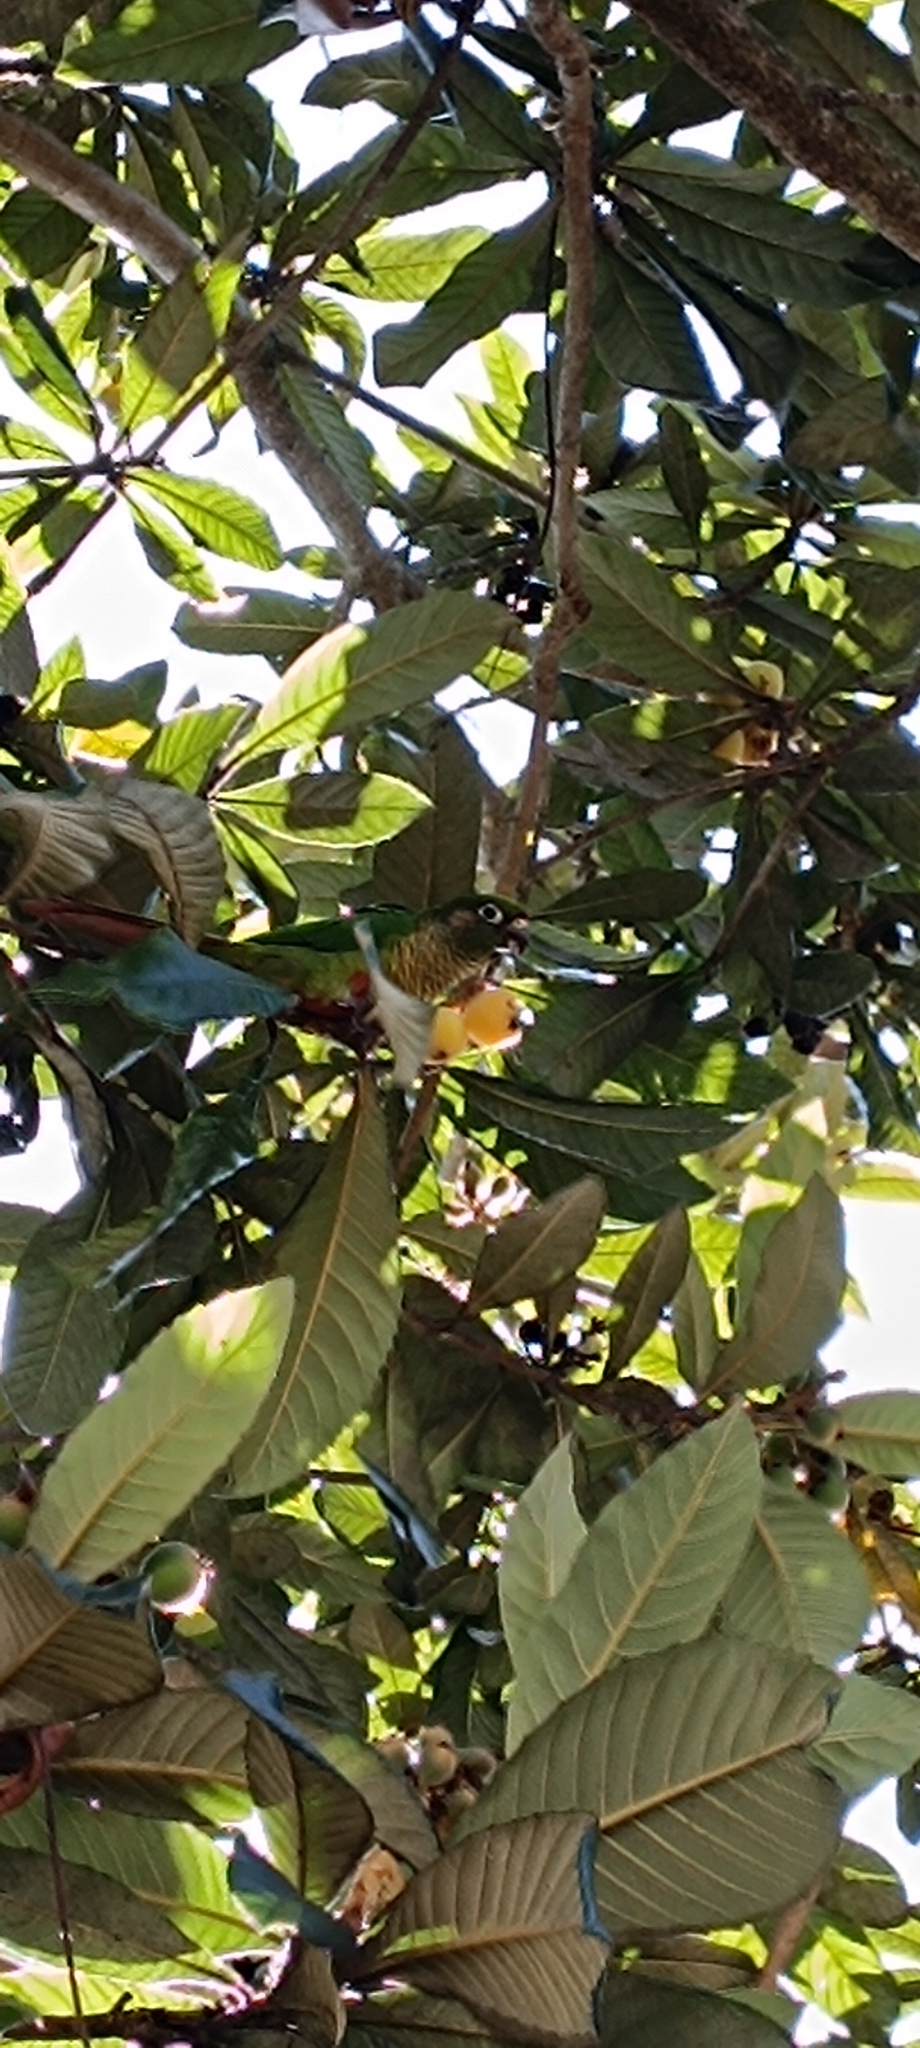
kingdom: Animalia
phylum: Chordata
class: Aves
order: Psittaciformes
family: Psittacidae
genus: Pyrrhura
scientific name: Pyrrhura frontalis
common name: Maroon-bellied parakeet
